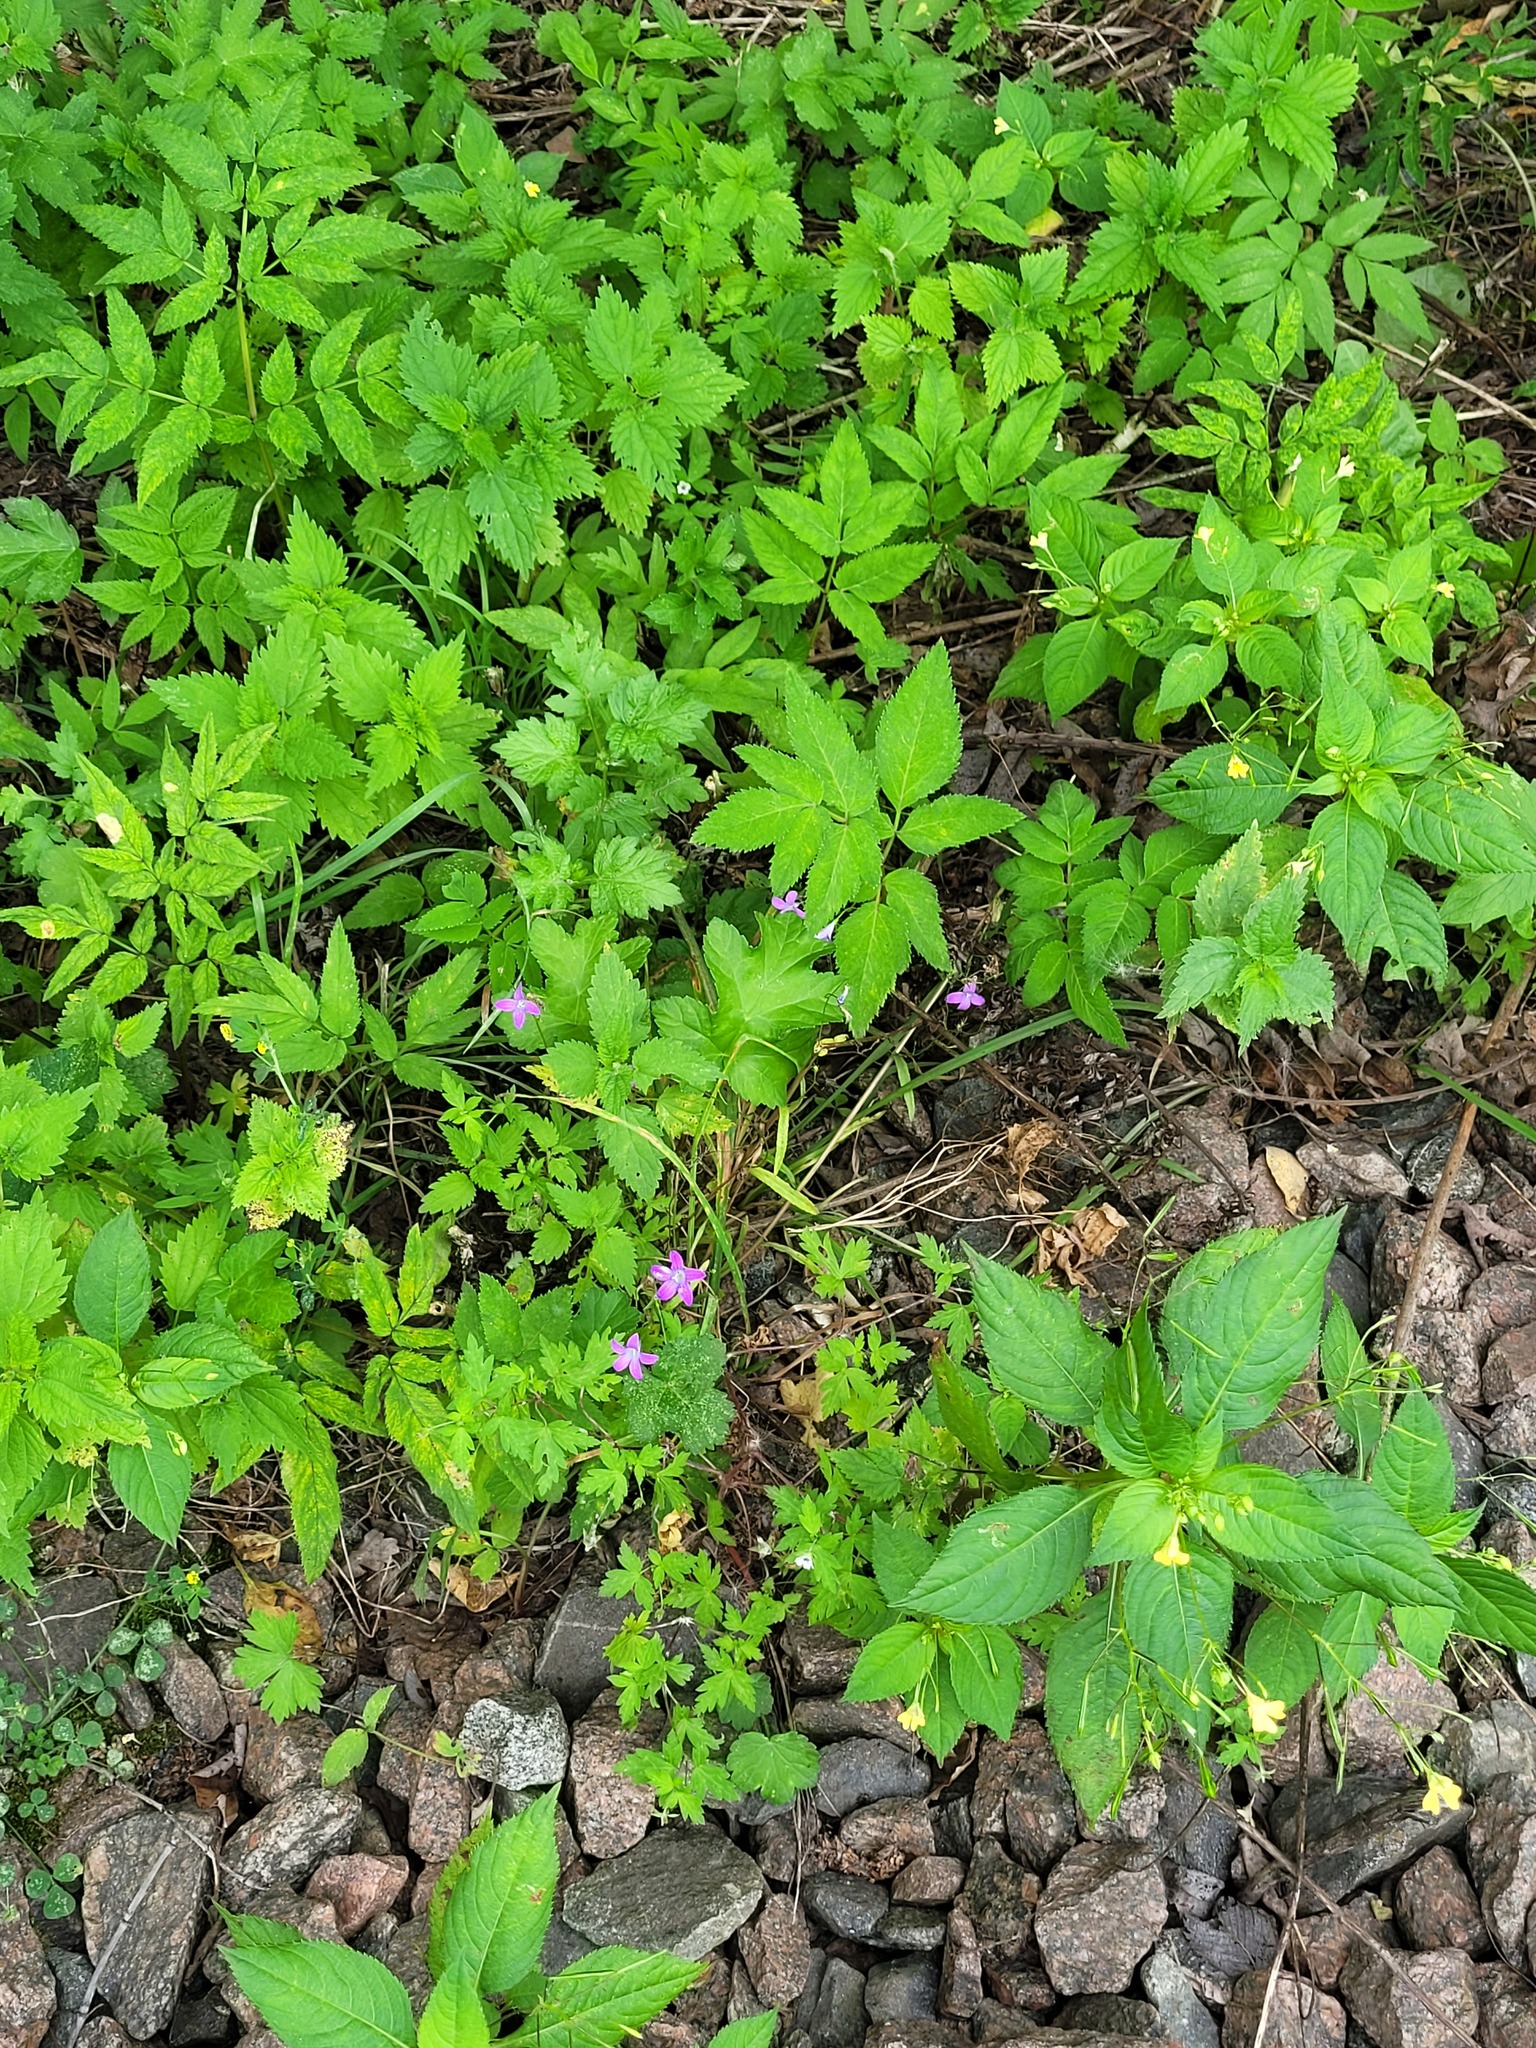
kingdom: Plantae
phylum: Tracheophyta
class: Magnoliopsida
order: Geraniales
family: Geraniaceae
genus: Geranium
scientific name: Geranium palustre
